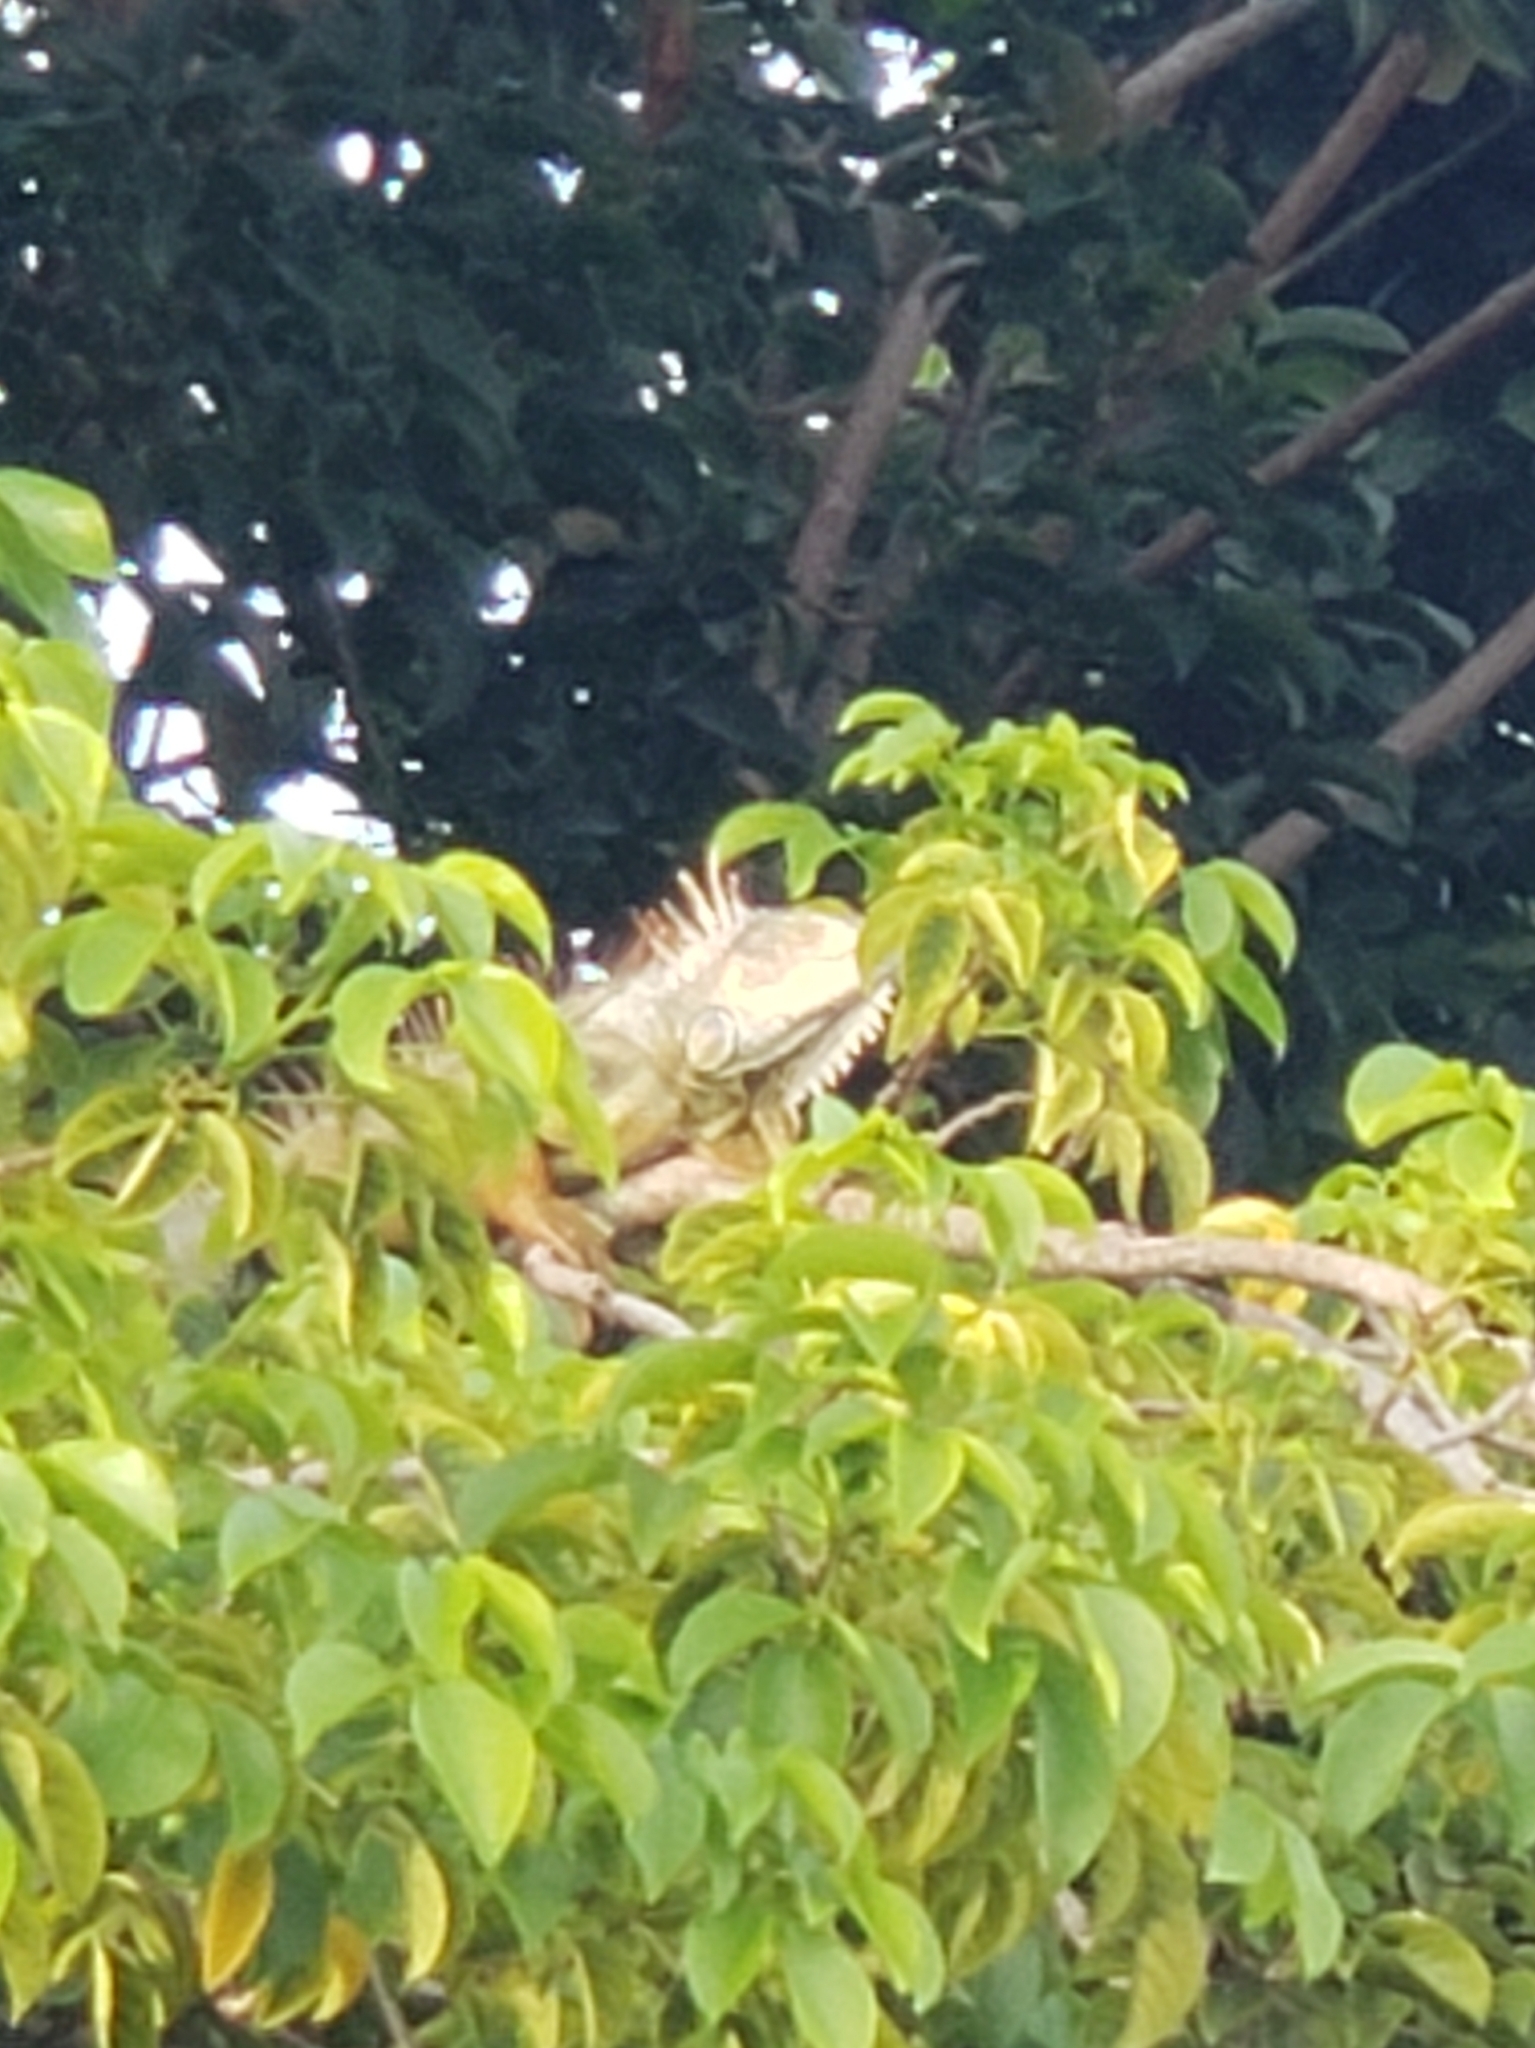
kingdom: Animalia
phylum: Chordata
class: Squamata
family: Iguanidae
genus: Iguana
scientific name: Iguana iguana
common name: Green iguana
